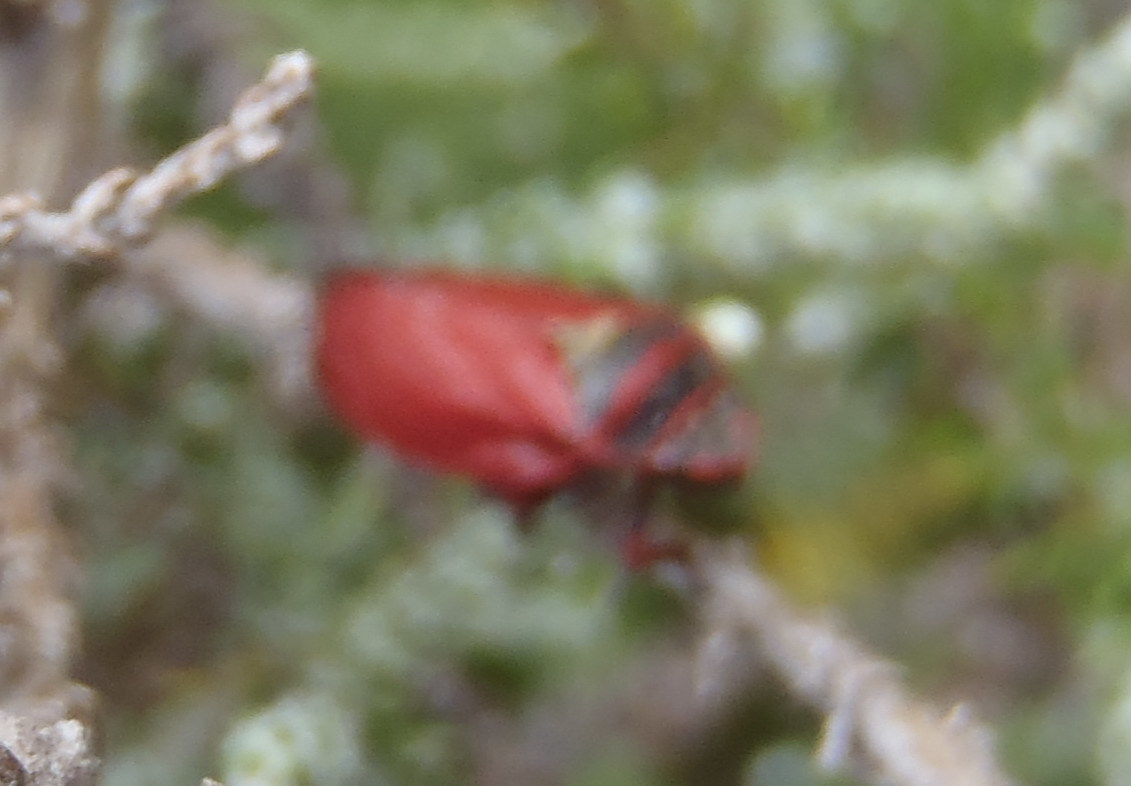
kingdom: Animalia
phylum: Arthropoda
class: Insecta
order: Hemiptera
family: Cercopidae
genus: Locris
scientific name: Locris transversa
